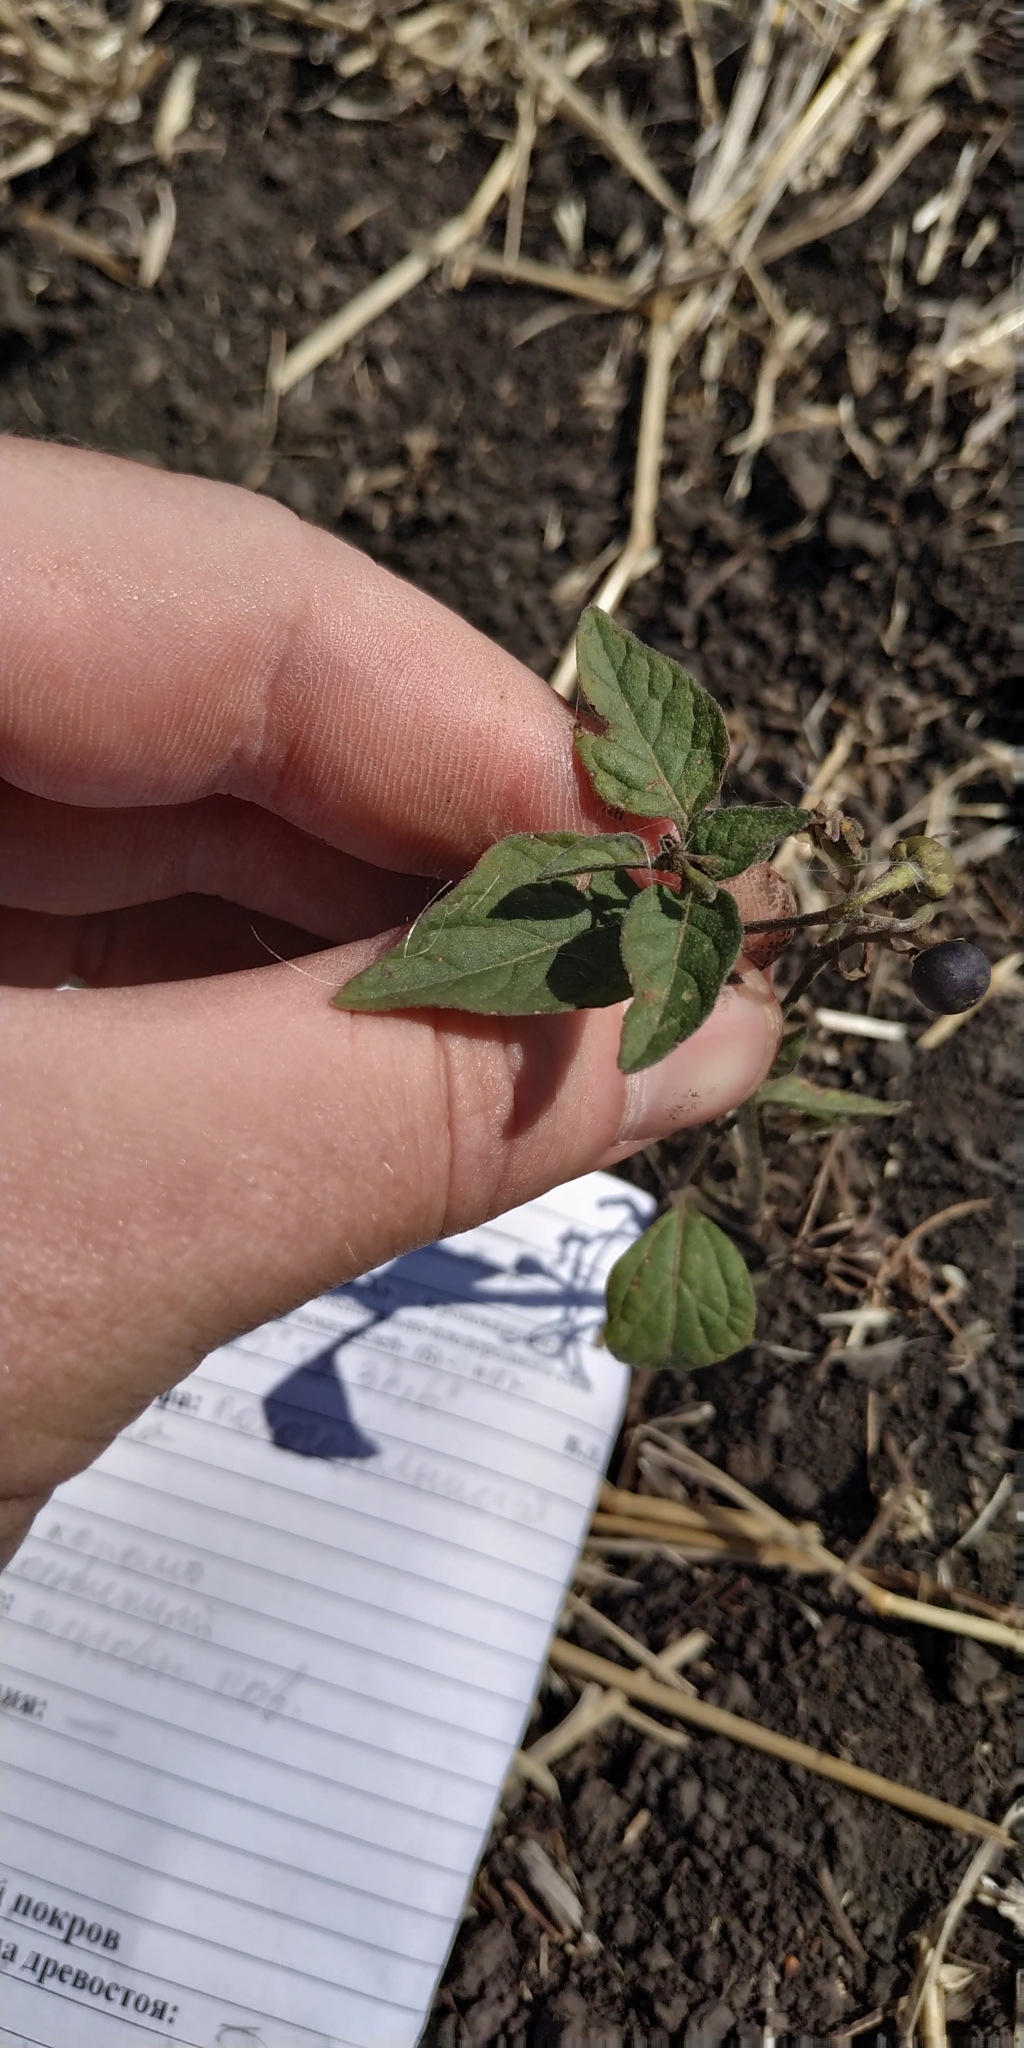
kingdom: Plantae
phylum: Tracheophyta
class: Magnoliopsida
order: Solanales
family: Solanaceae
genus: Solanum
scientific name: Solanum nigrum
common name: Black nightshade
